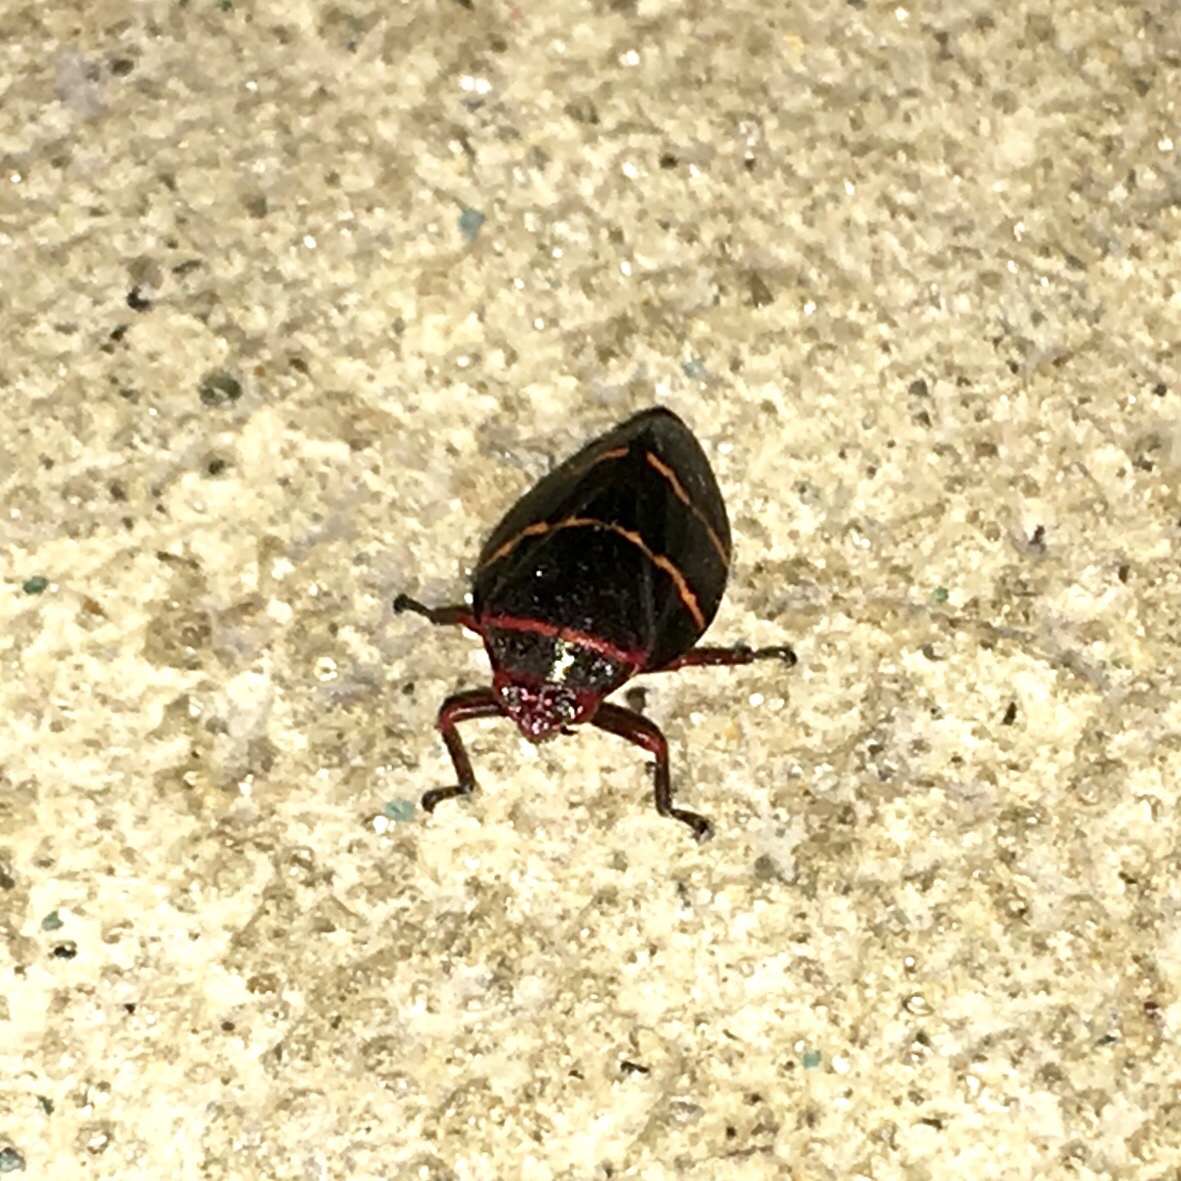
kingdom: Animalia
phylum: Arthropoda
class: Insecta
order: Hemiptera
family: Cercopidae
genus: Prosapia
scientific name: Prosapia bicincta
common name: Twolined spittlebug
